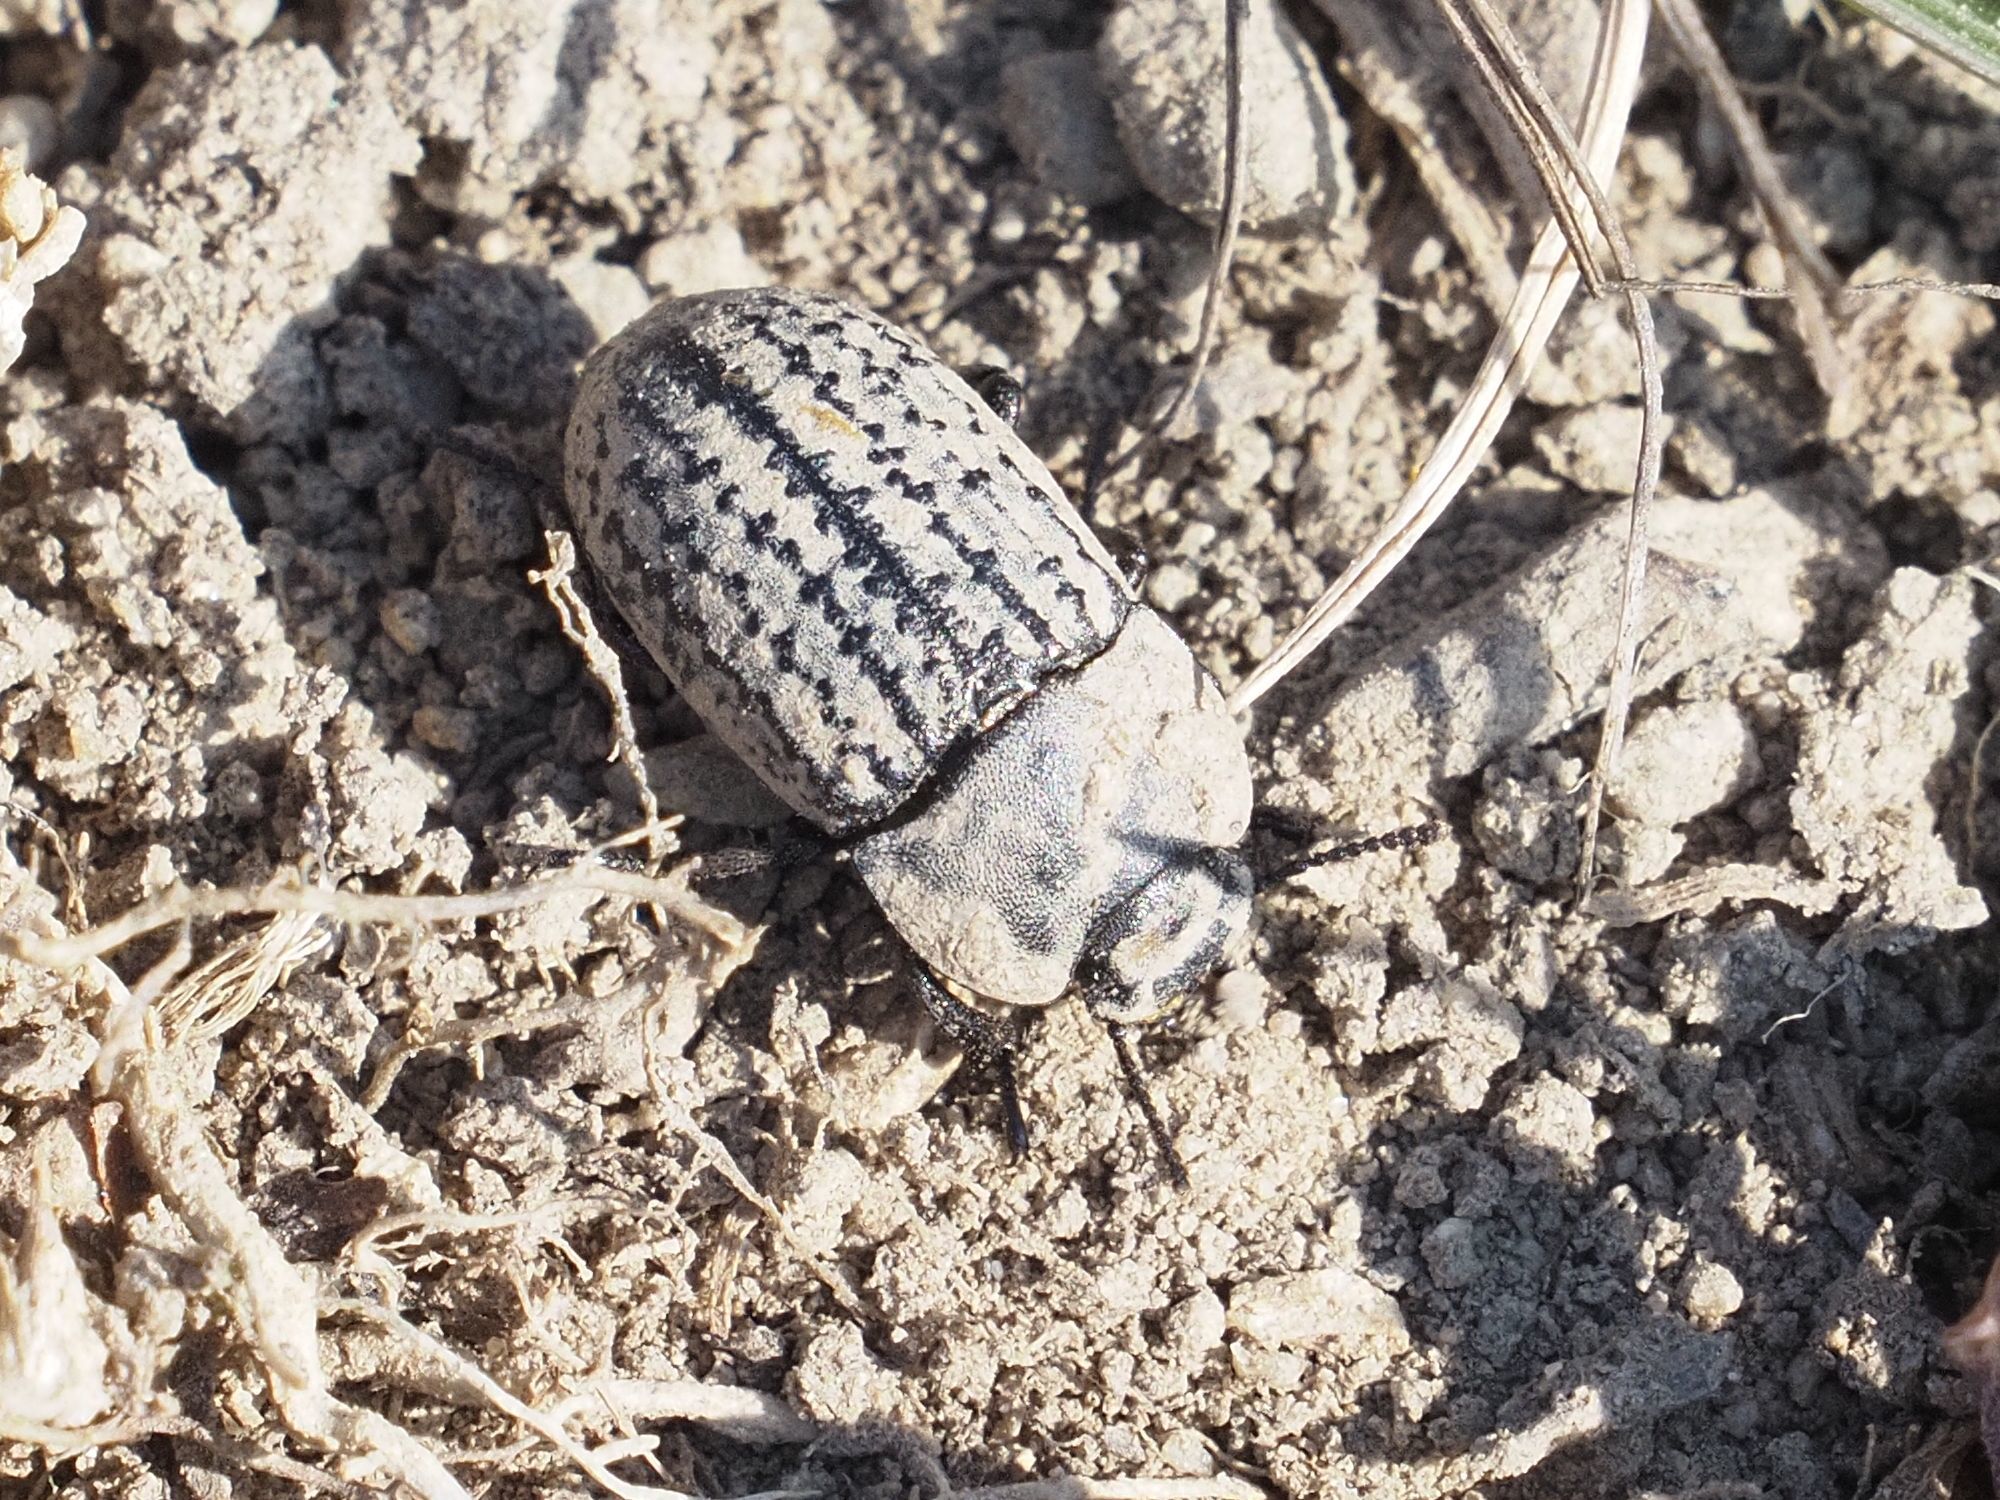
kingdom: Animalia
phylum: Arthropoda
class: Insecta
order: Coleoptera
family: Tenebrionidae
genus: Opatrum
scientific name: Opatrum sabulosum
